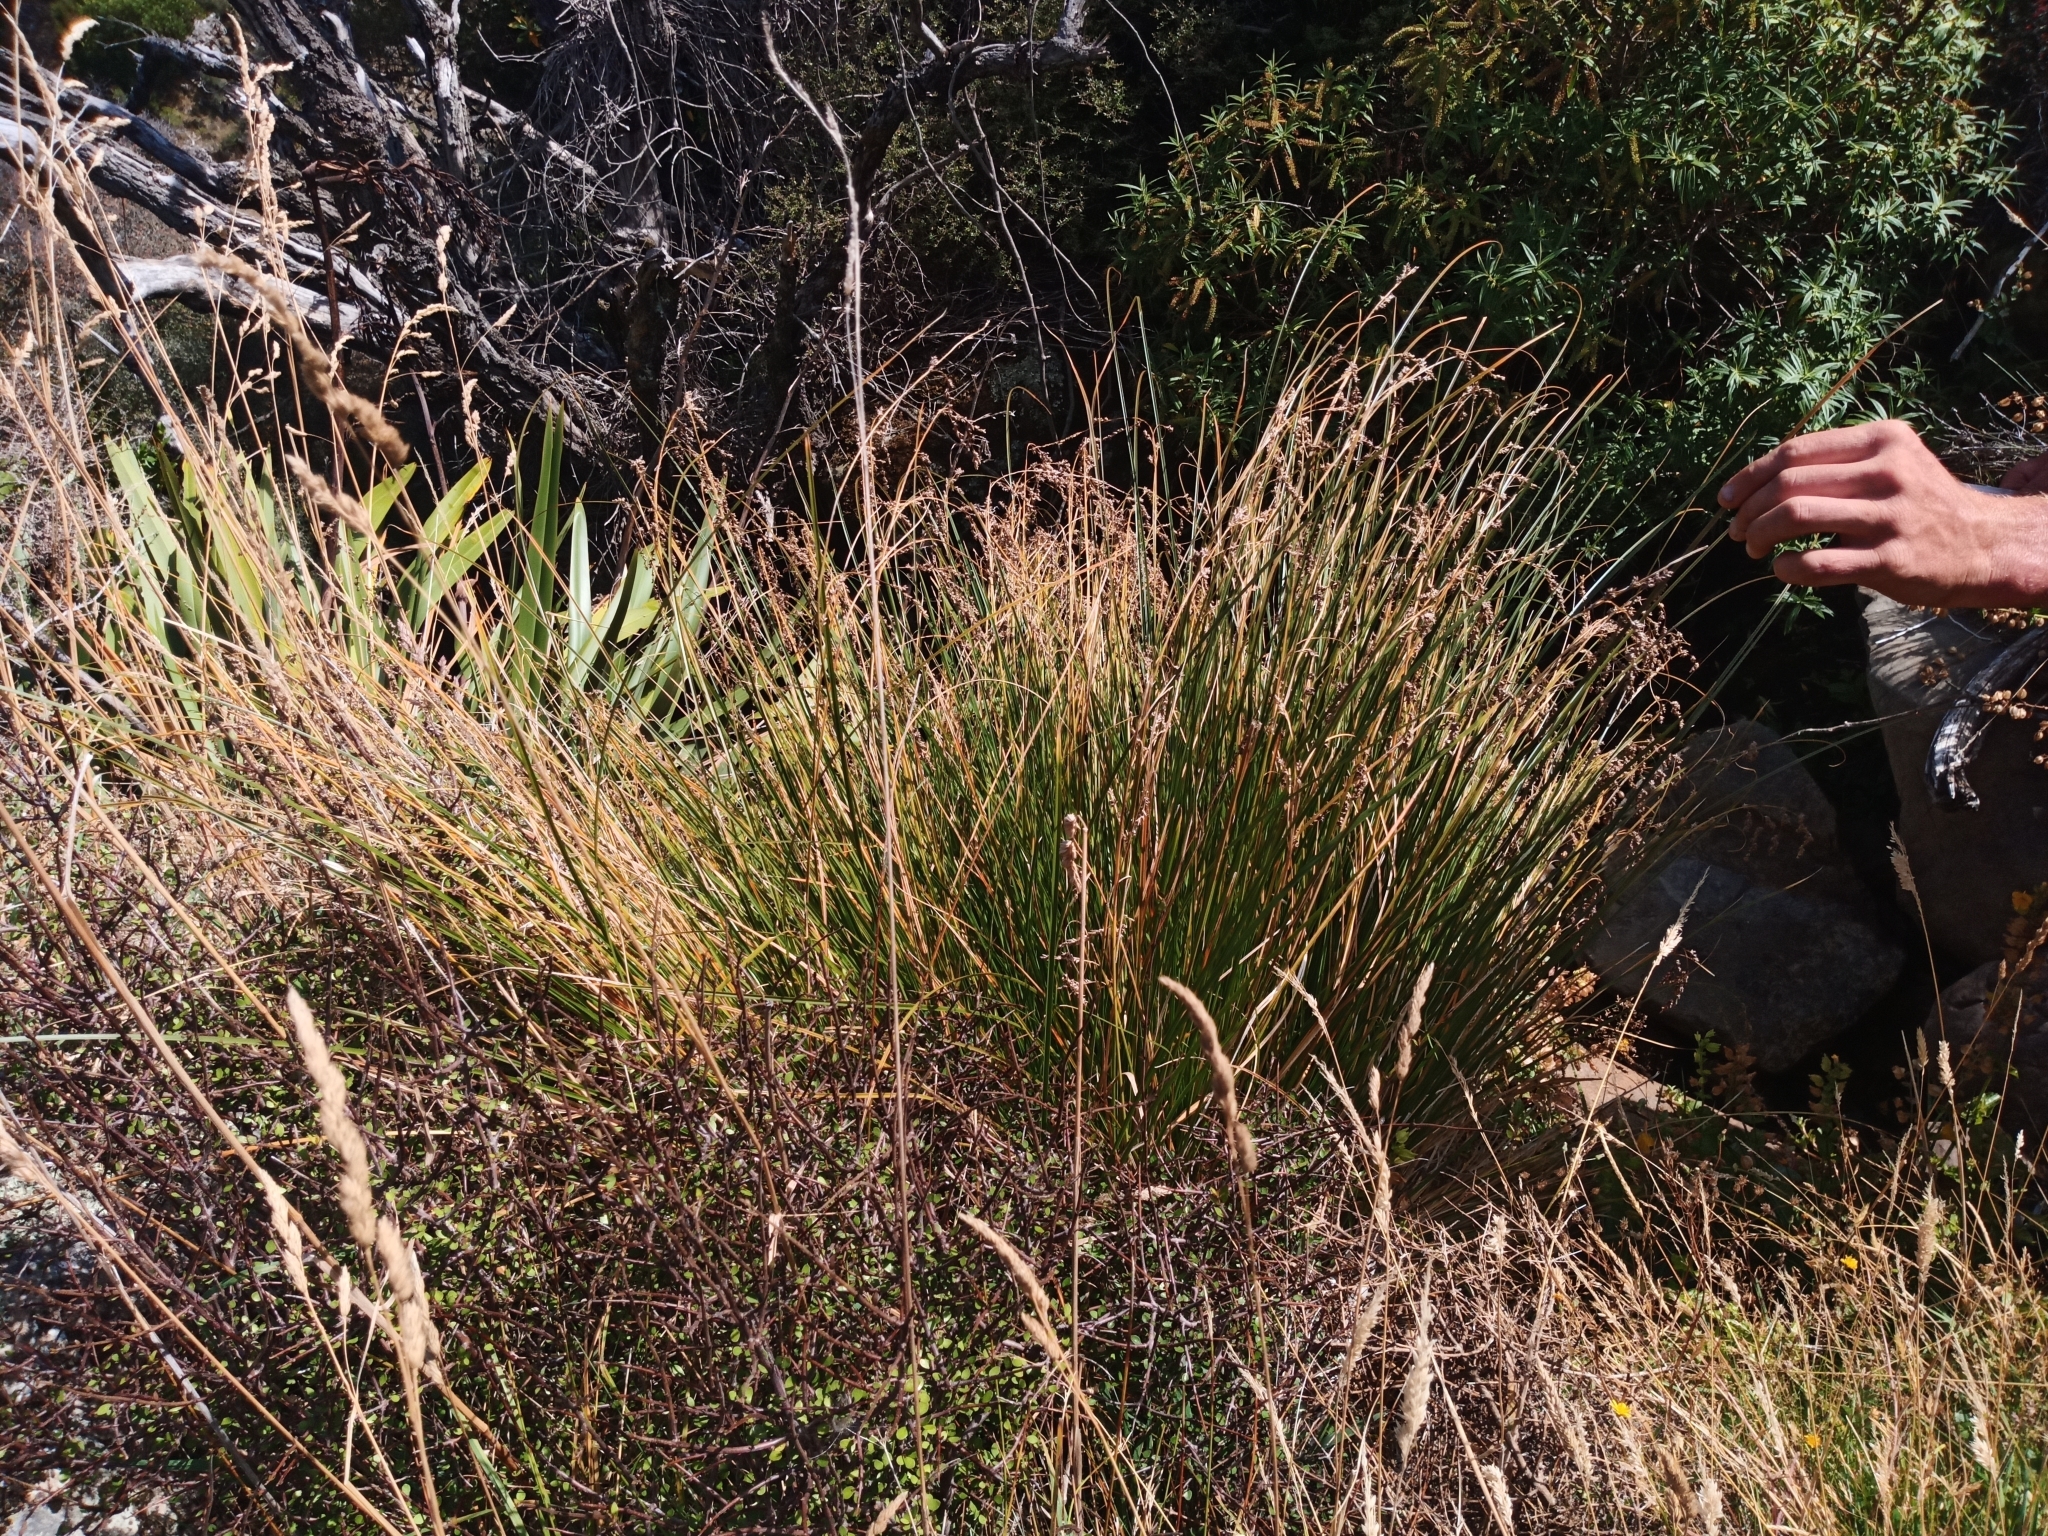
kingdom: Plantae
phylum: Tracheophyta
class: Liliopsida
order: Poales
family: Cyperaceae
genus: Carex
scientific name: Carex secta
